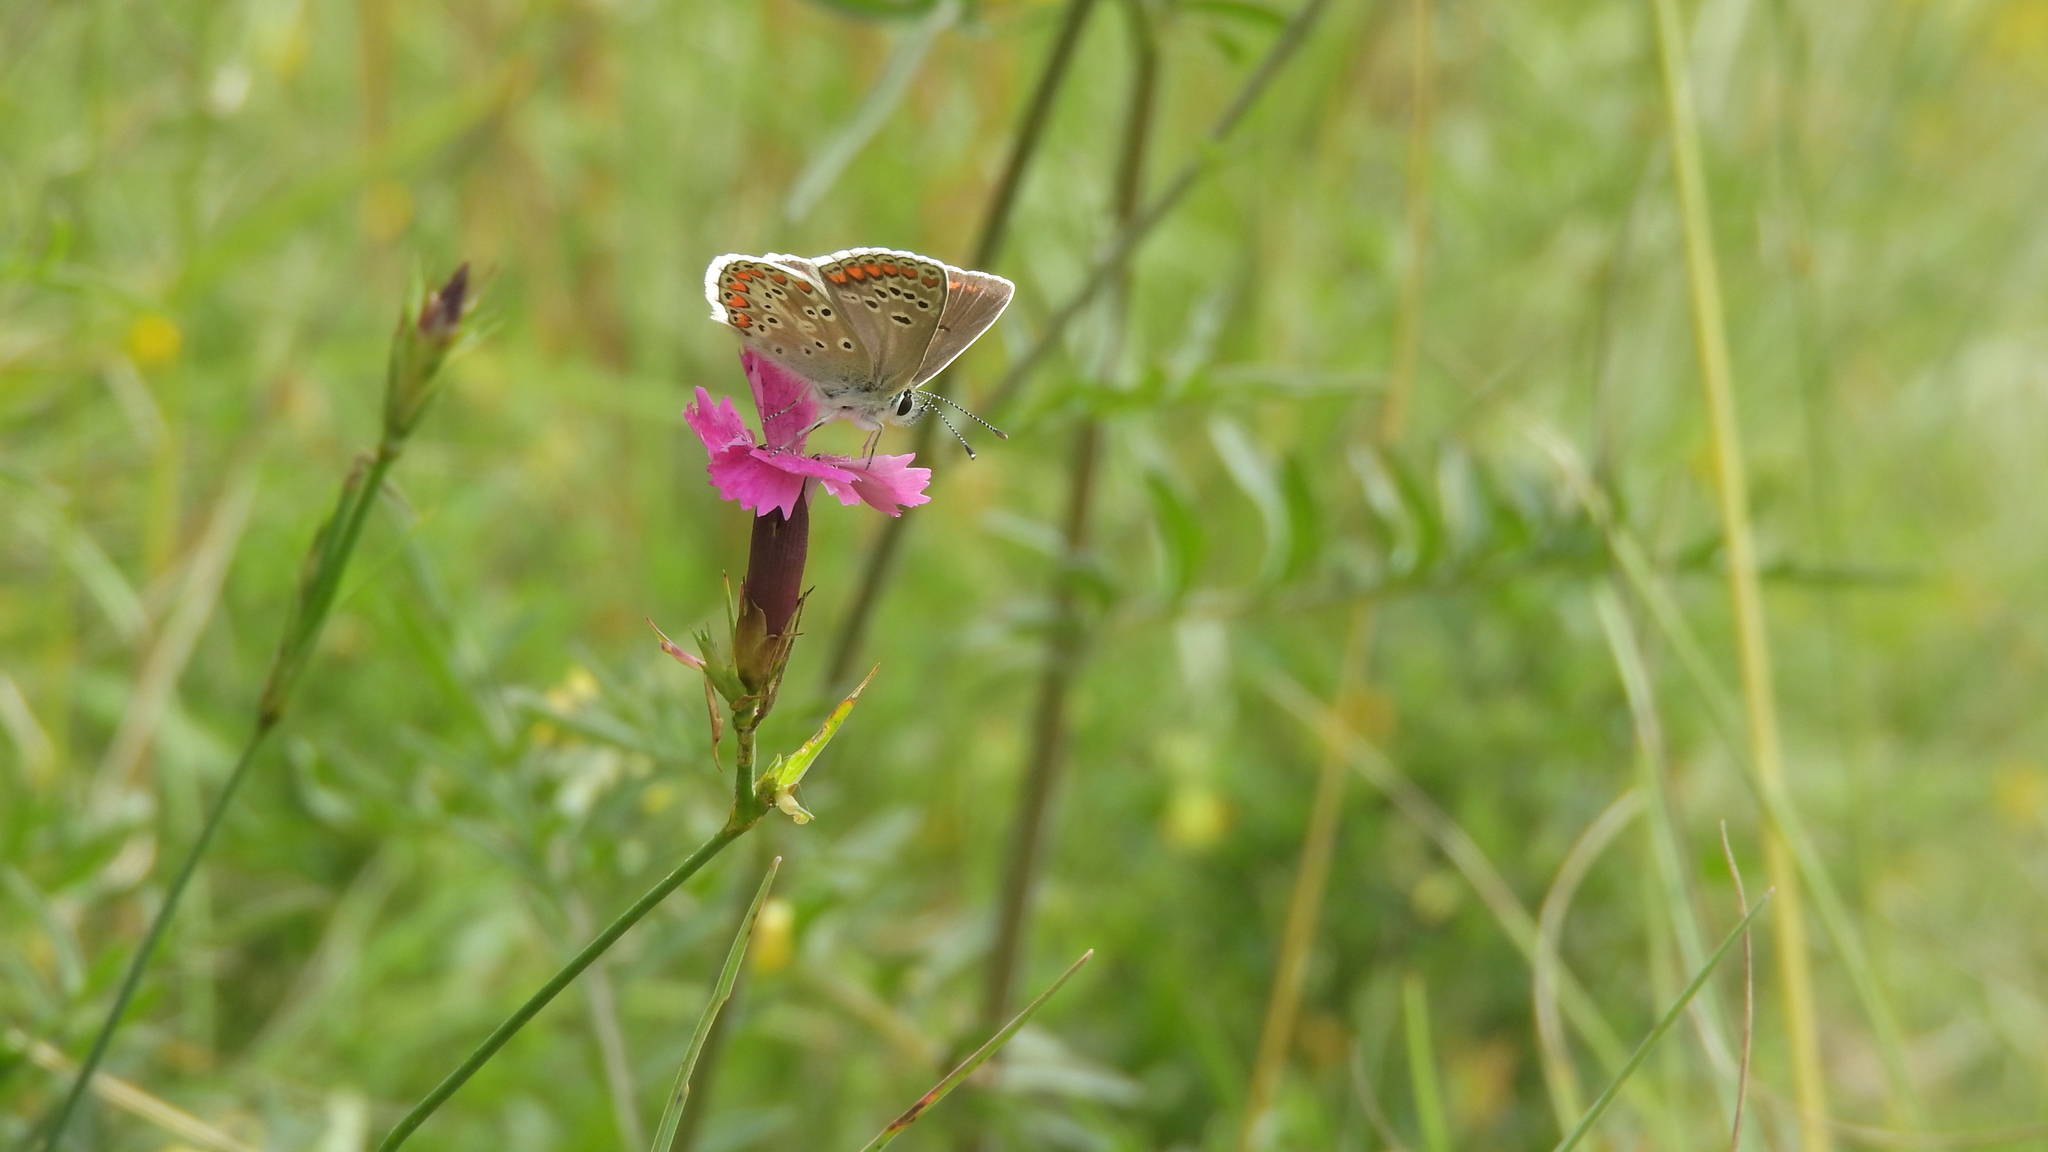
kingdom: Animalia
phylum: Arthropoda
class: Insecta
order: Lepidoptera
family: Lycaenidae
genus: Aricia
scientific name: Aricia agestis
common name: Brown argus
